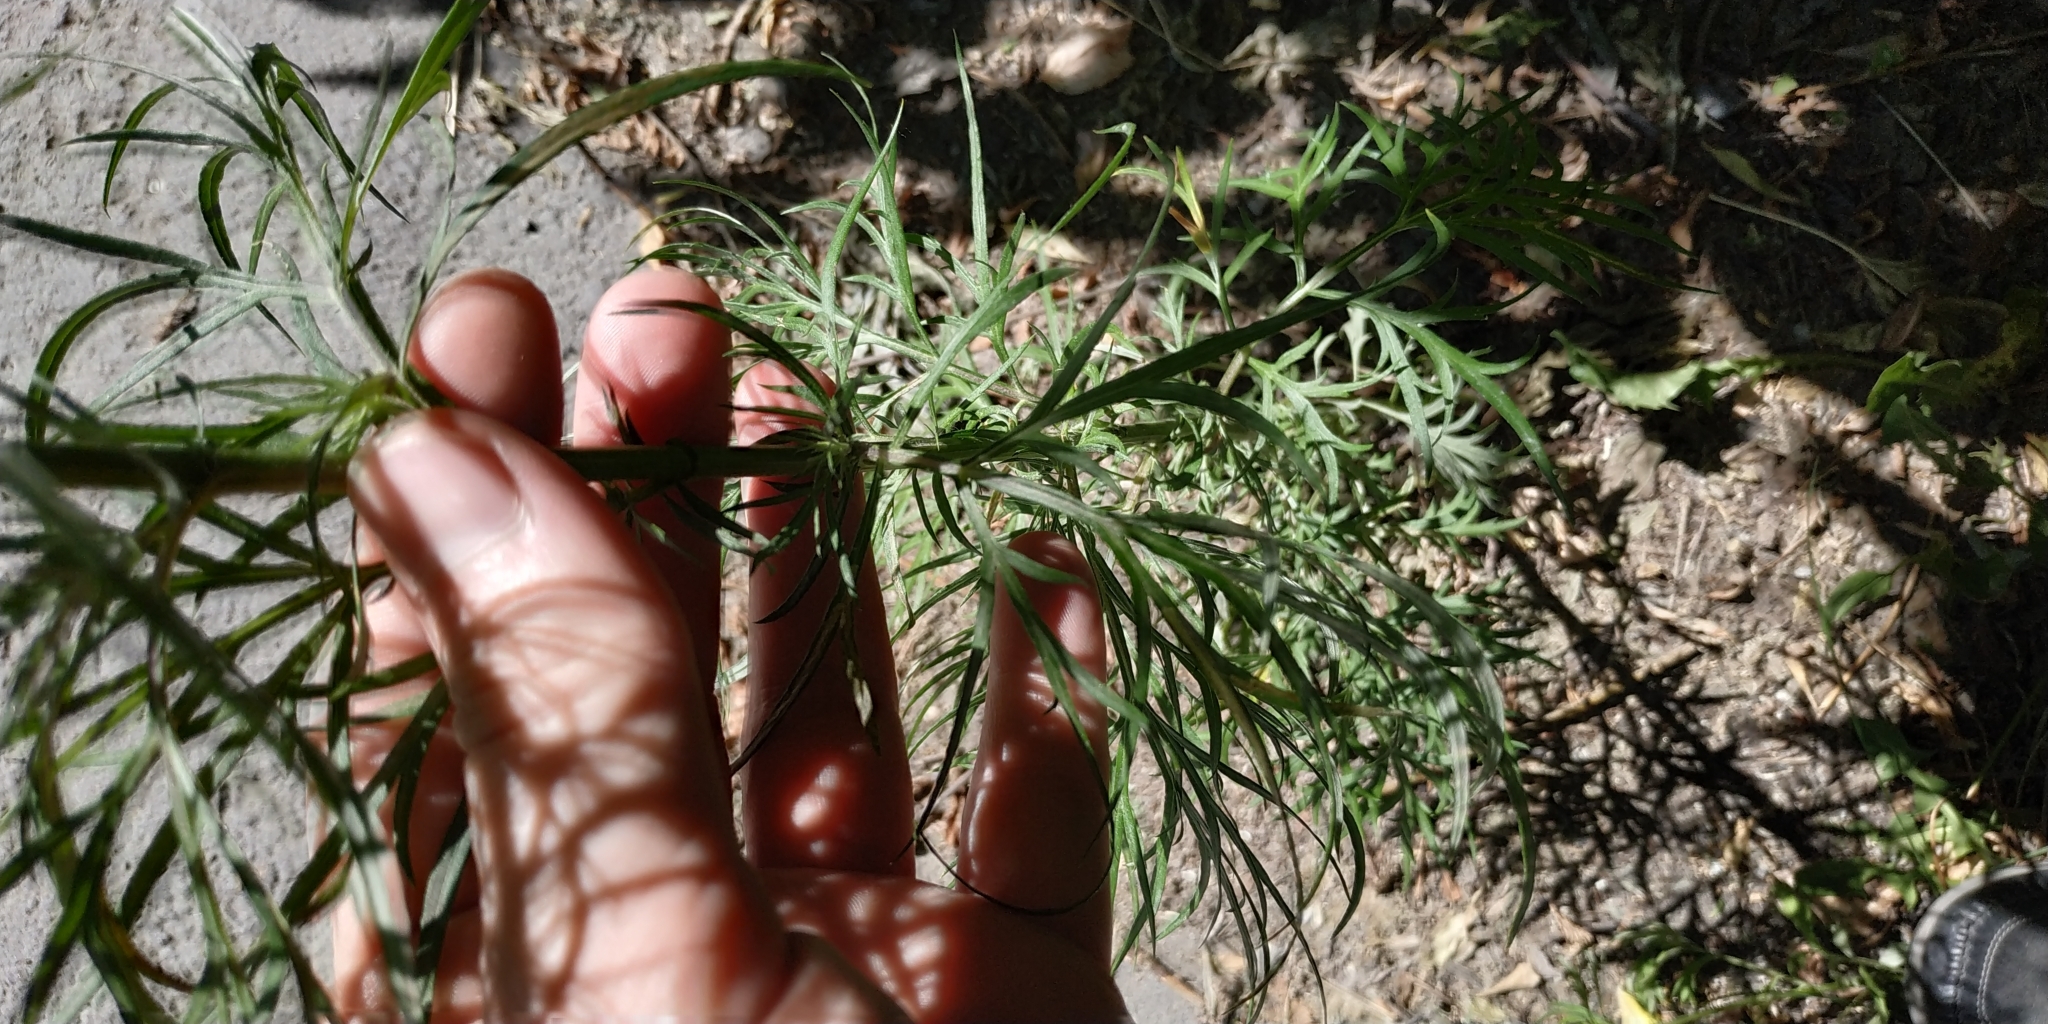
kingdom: Plantae
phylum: Tracheophyta
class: Magnoliopsida
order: Asterales
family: Asteraceae
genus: Artemisia
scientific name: Artemisia vulgaris
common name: Mugwort
